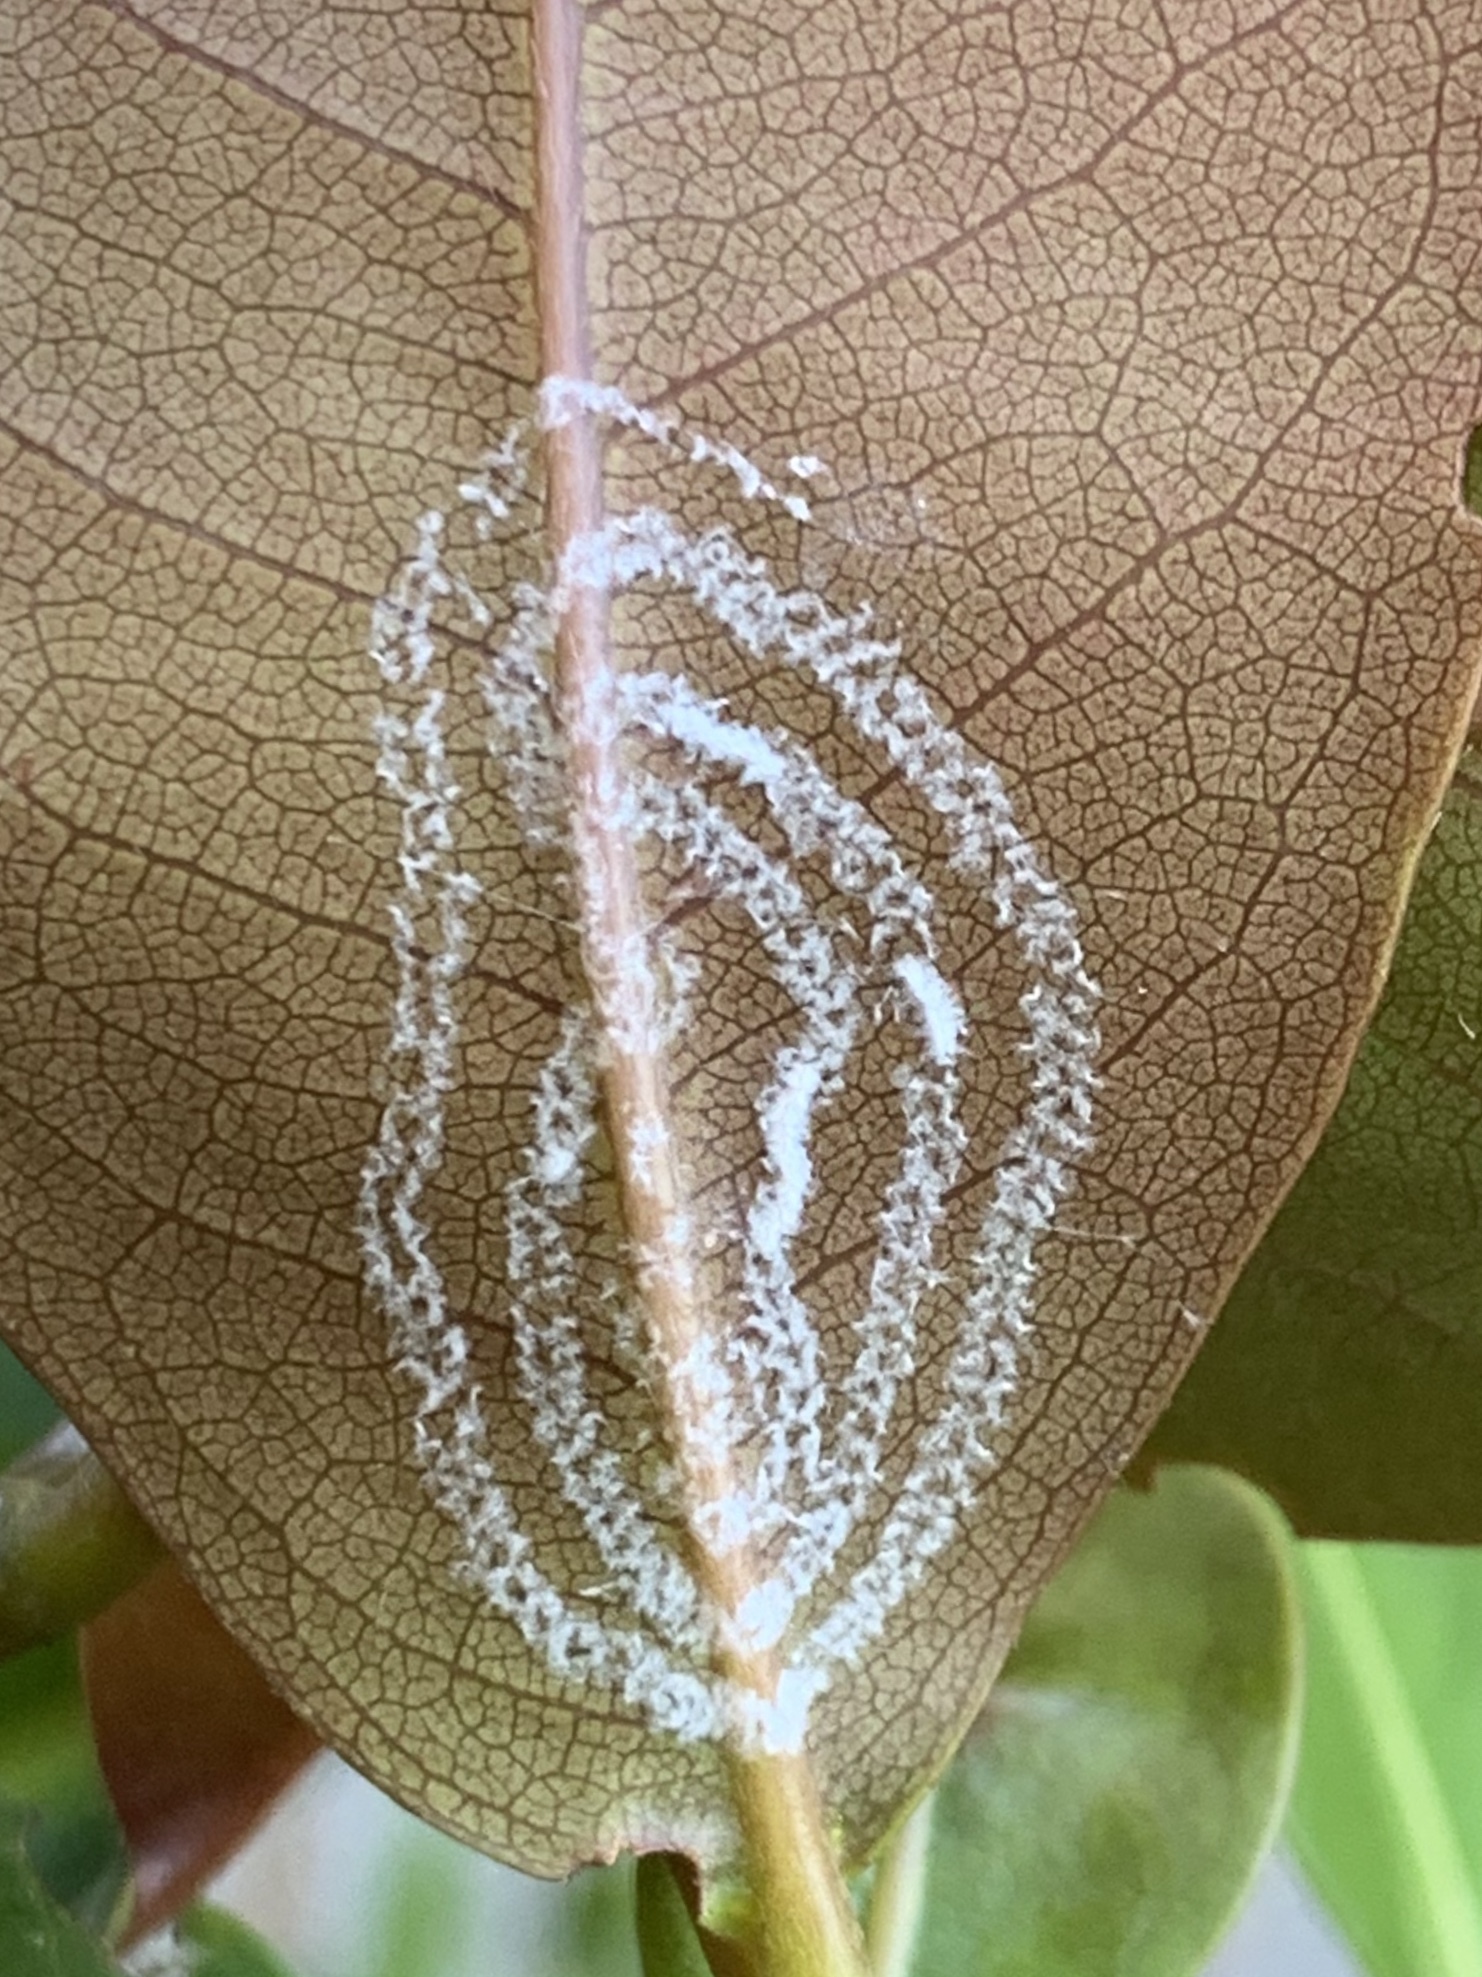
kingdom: Animalia
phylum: Arthropoda
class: Insecta
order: Hemiptera
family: Aleyrodidae
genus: Aleurodicus
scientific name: Aleurodicus rugioperculatus
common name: Rugose spiraling whitefly
